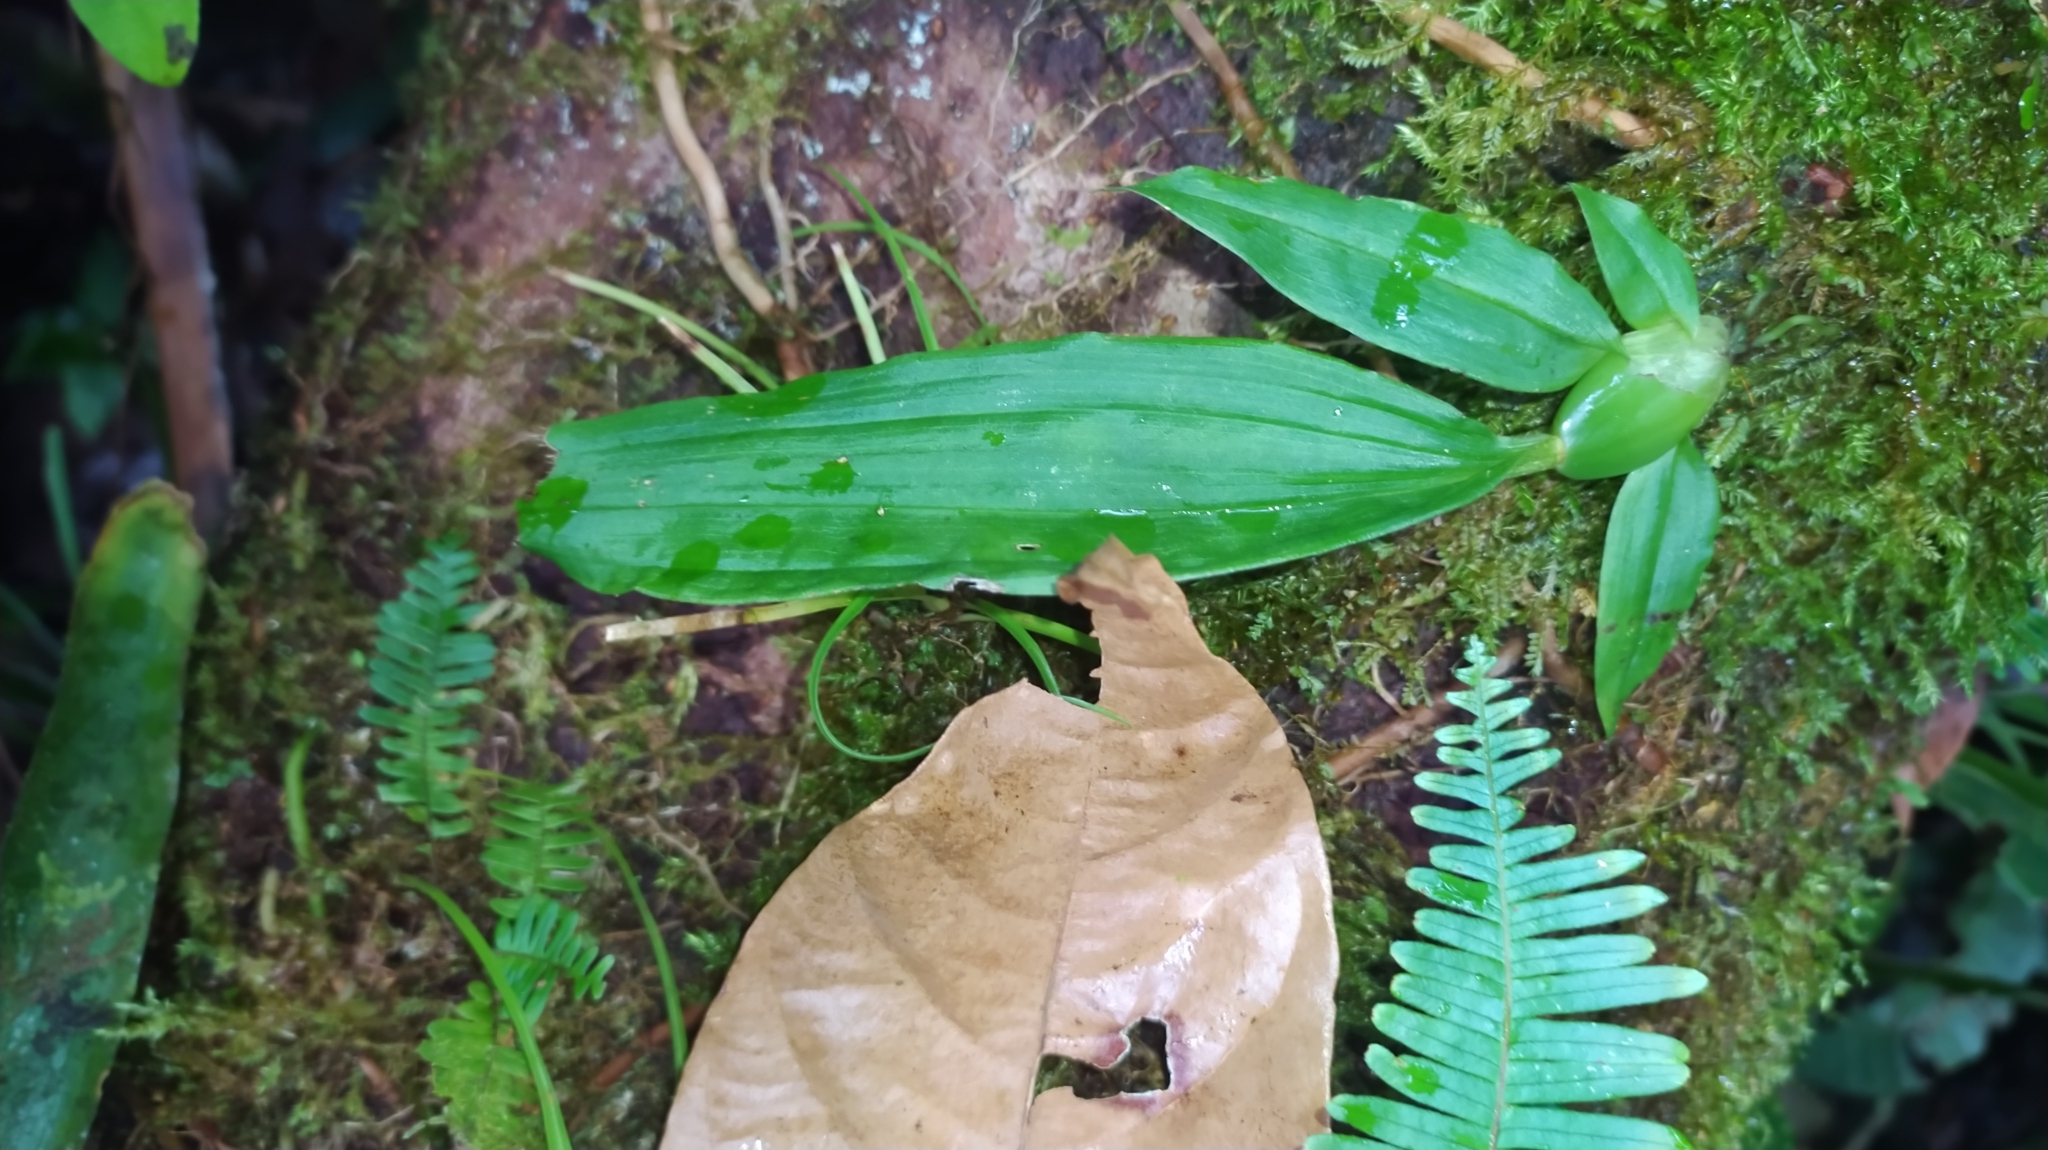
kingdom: Plantae
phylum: Tracheophyta
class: Liliopsida
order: Asparagales
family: Orchidaceae
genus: Paphinia
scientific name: Paphinia cristata
